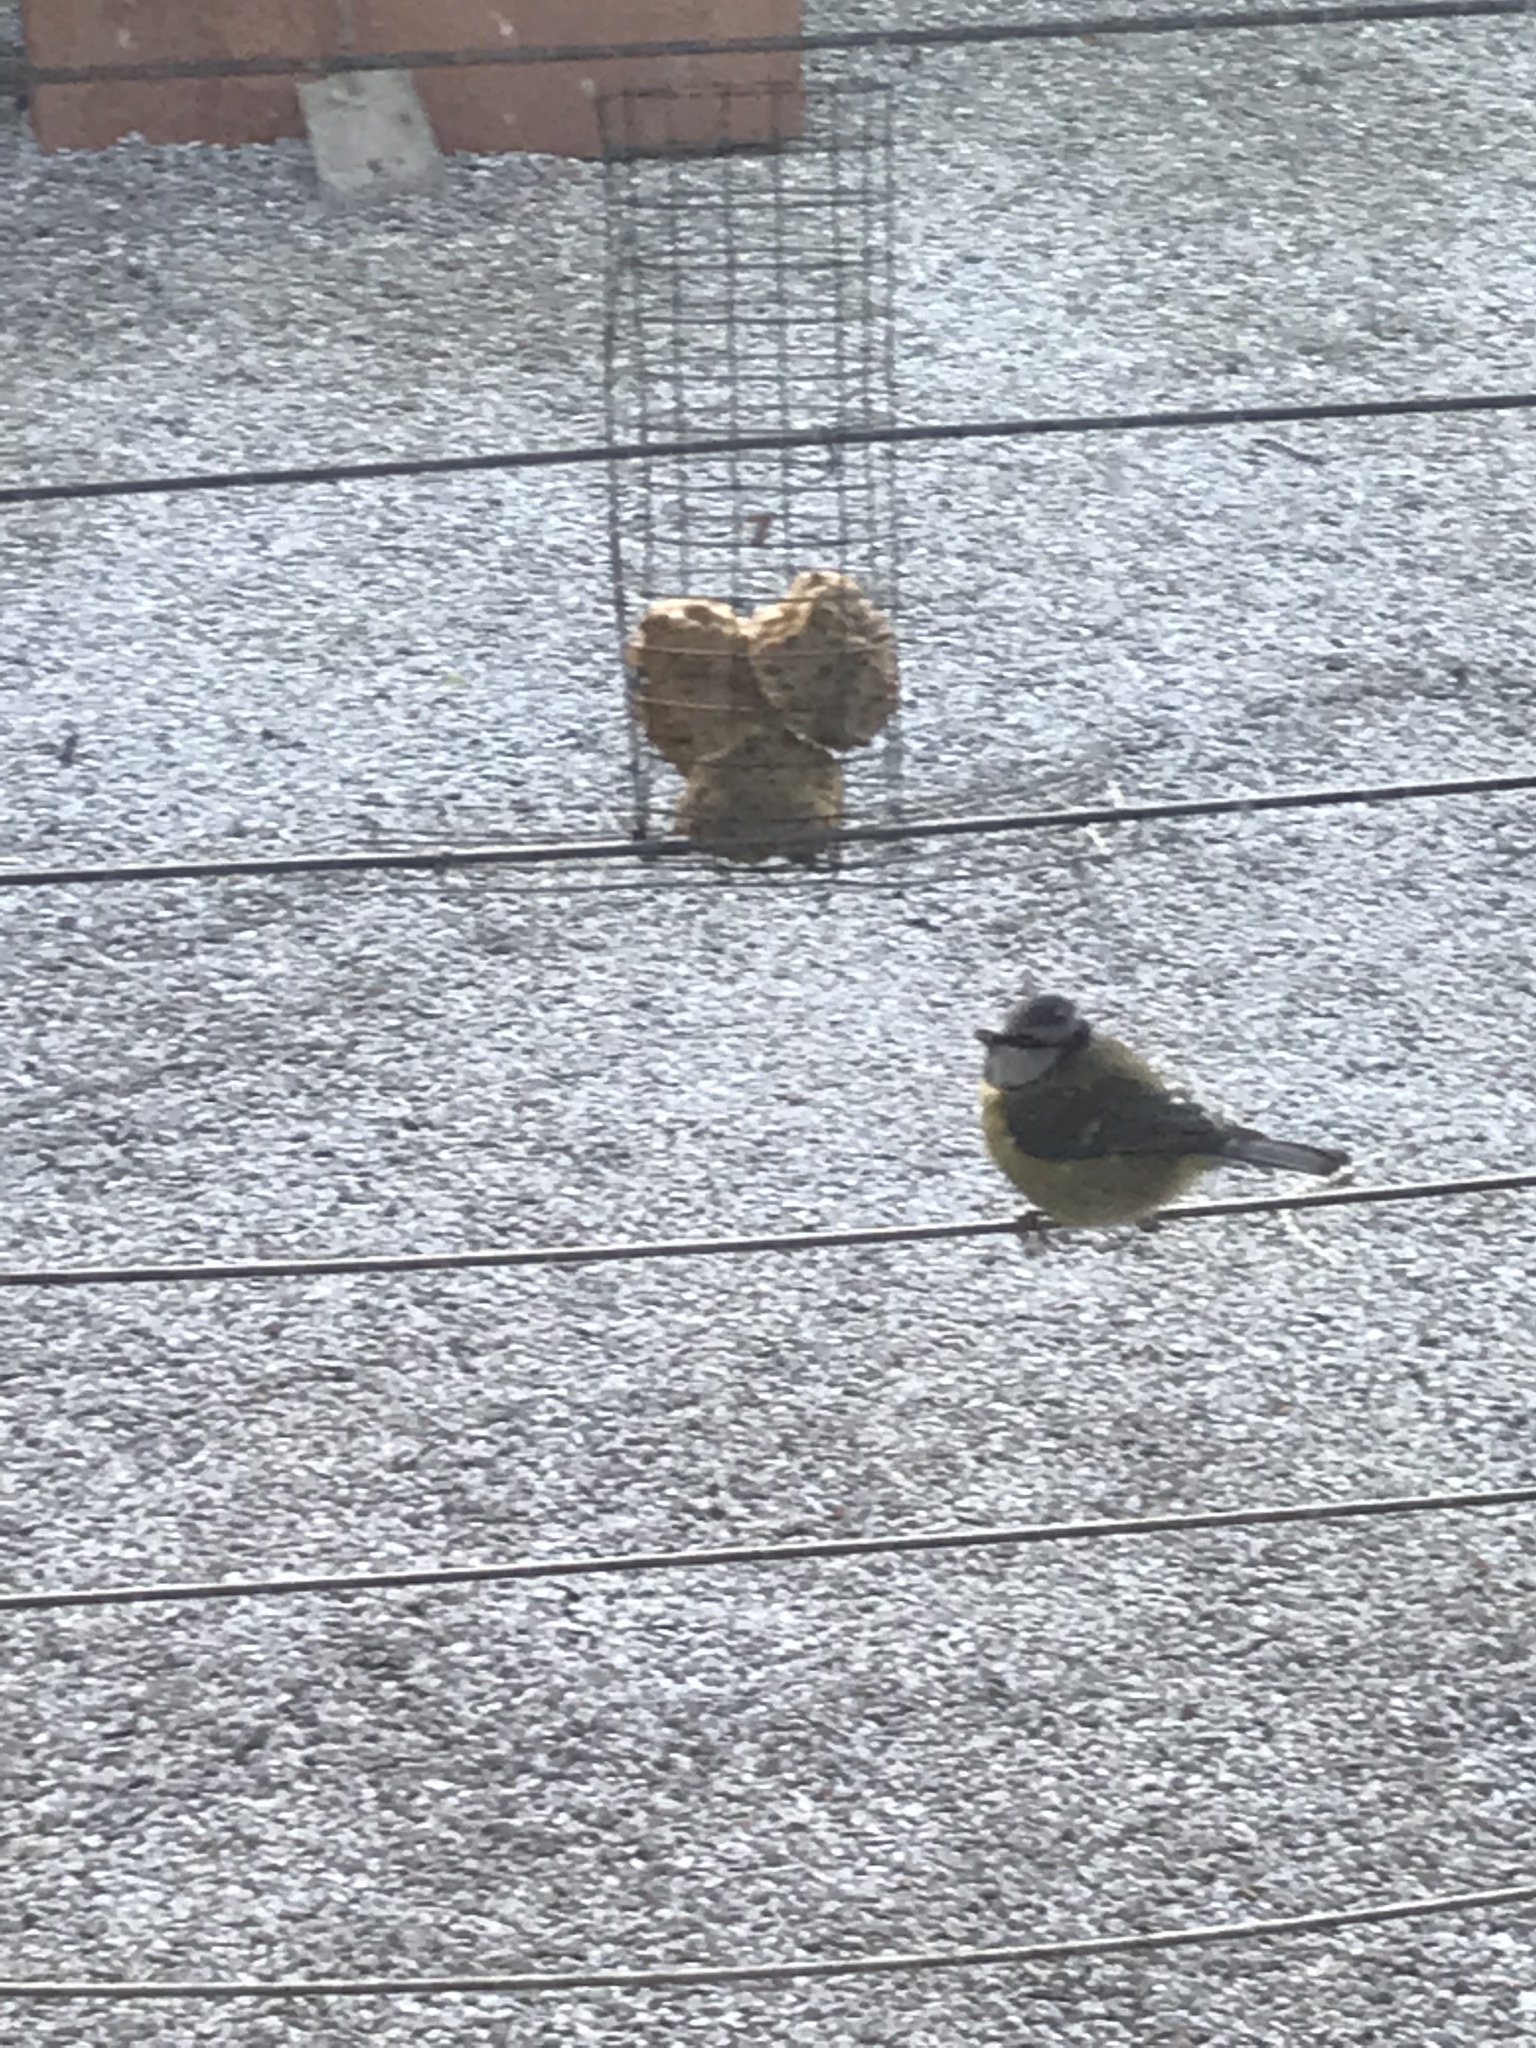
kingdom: Animalia
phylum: Chordata
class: Aves
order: Passeriformes
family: Paridae
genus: Cyanistes
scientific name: Cyanistes caeruleus
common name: Eurasian blue tit
